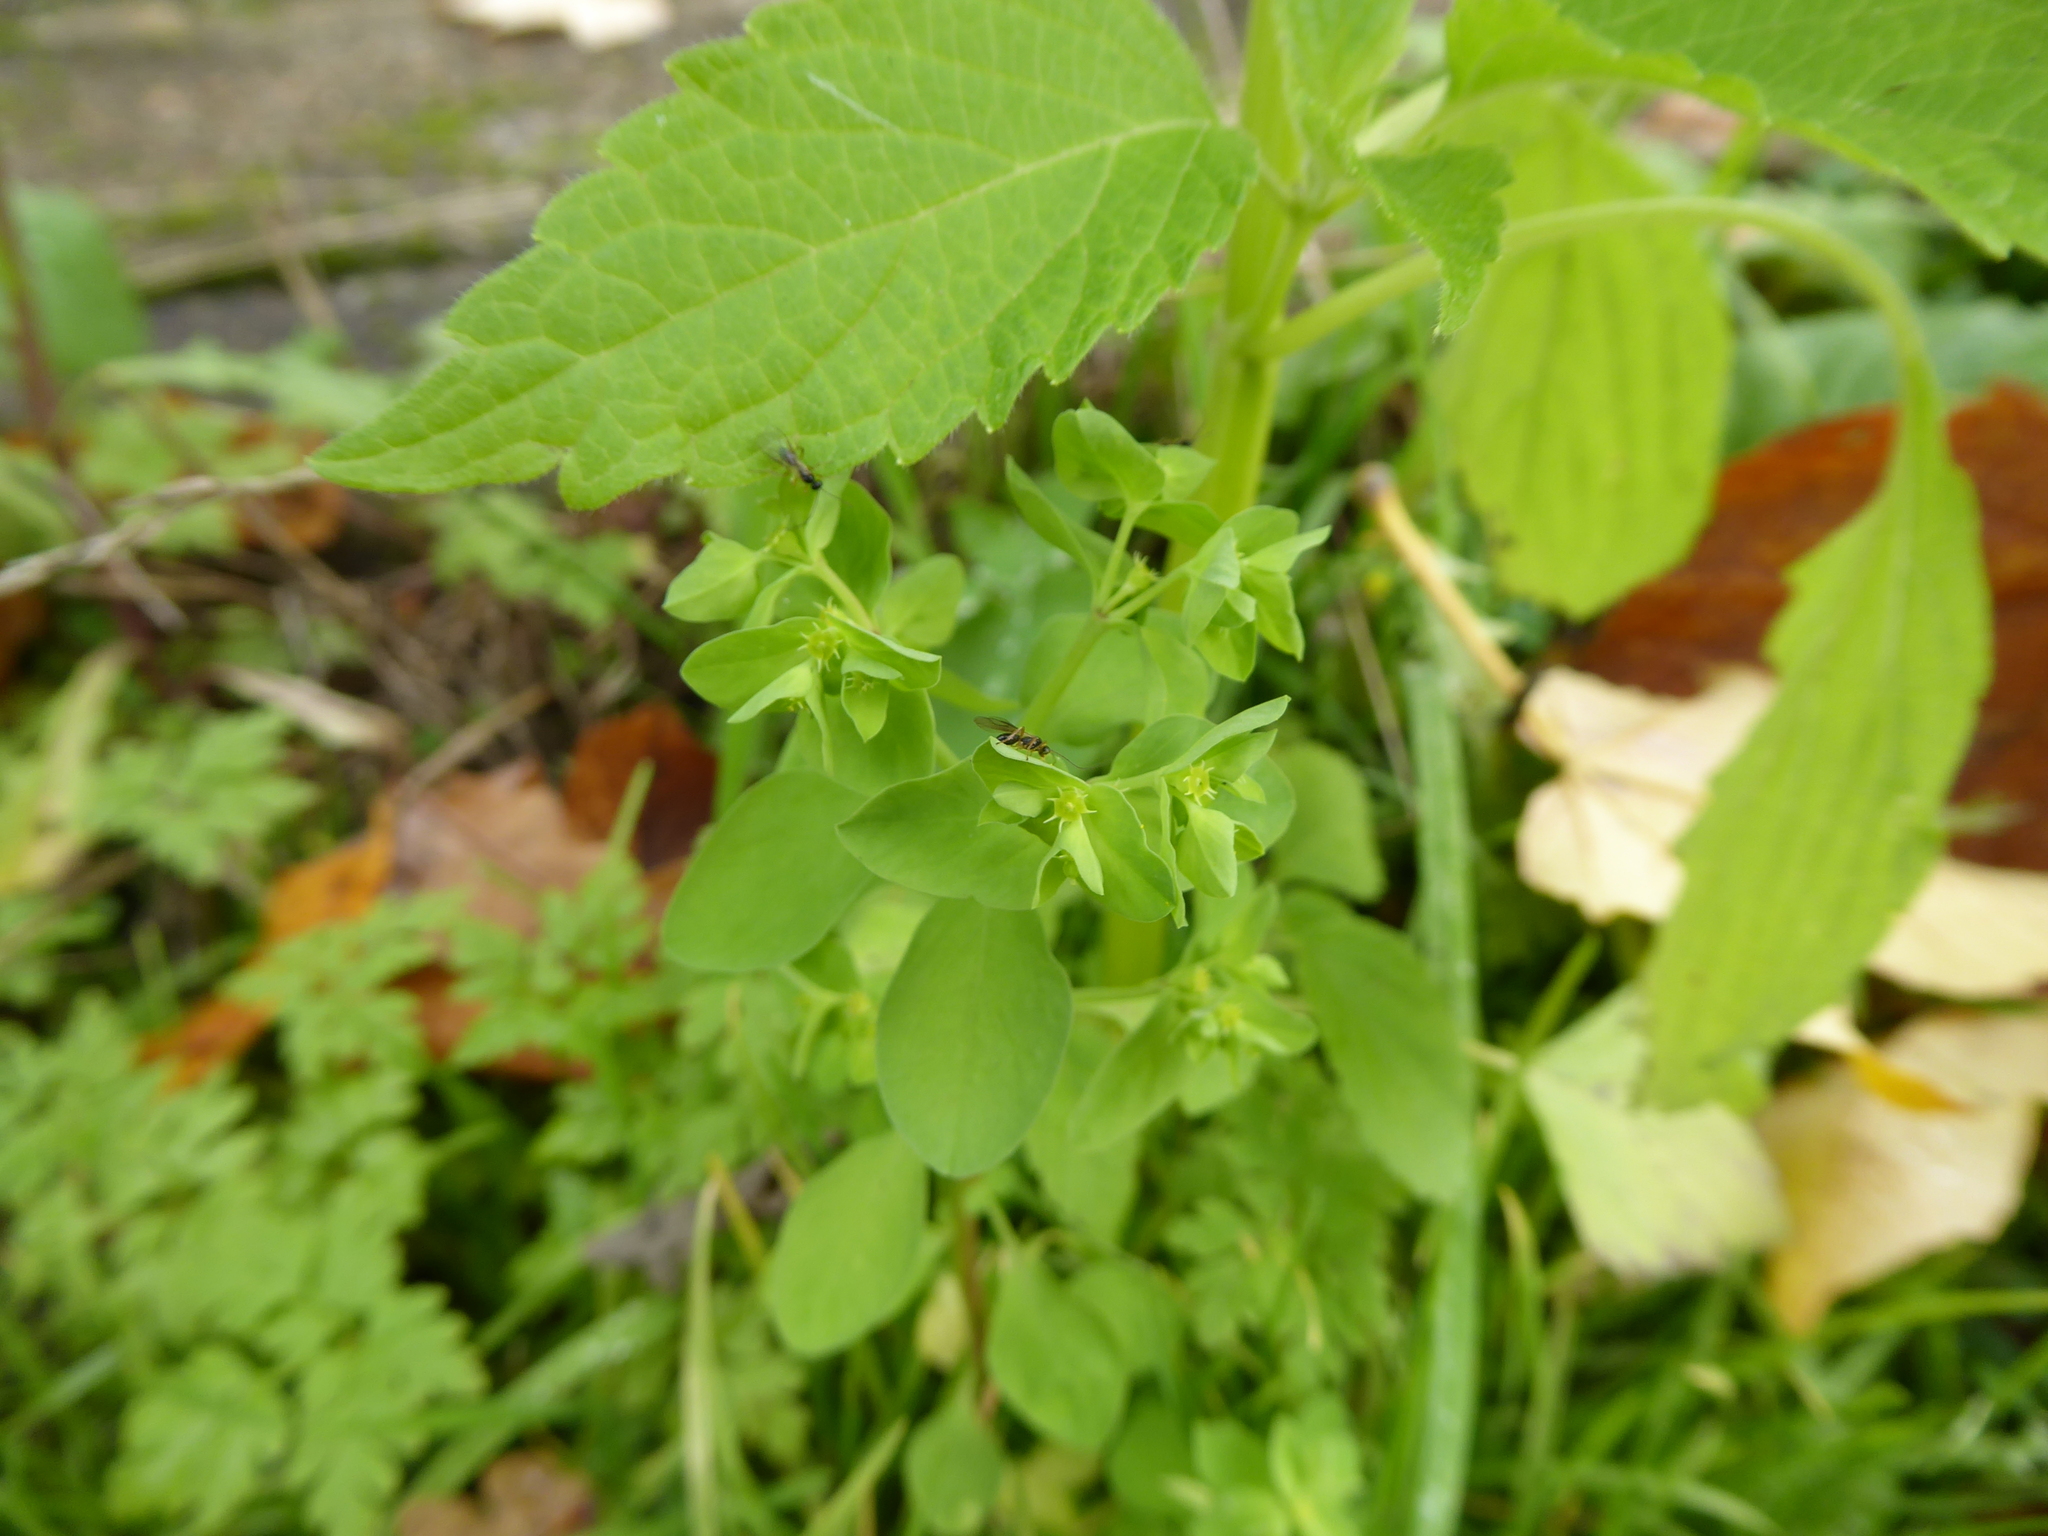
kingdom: Plantae
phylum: Tracheophyta
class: Magnoliopsida
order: Malpighiales
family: Euphorbiaceae
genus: Euphorbia
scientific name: Euphorbia peplus
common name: Petty spurge
